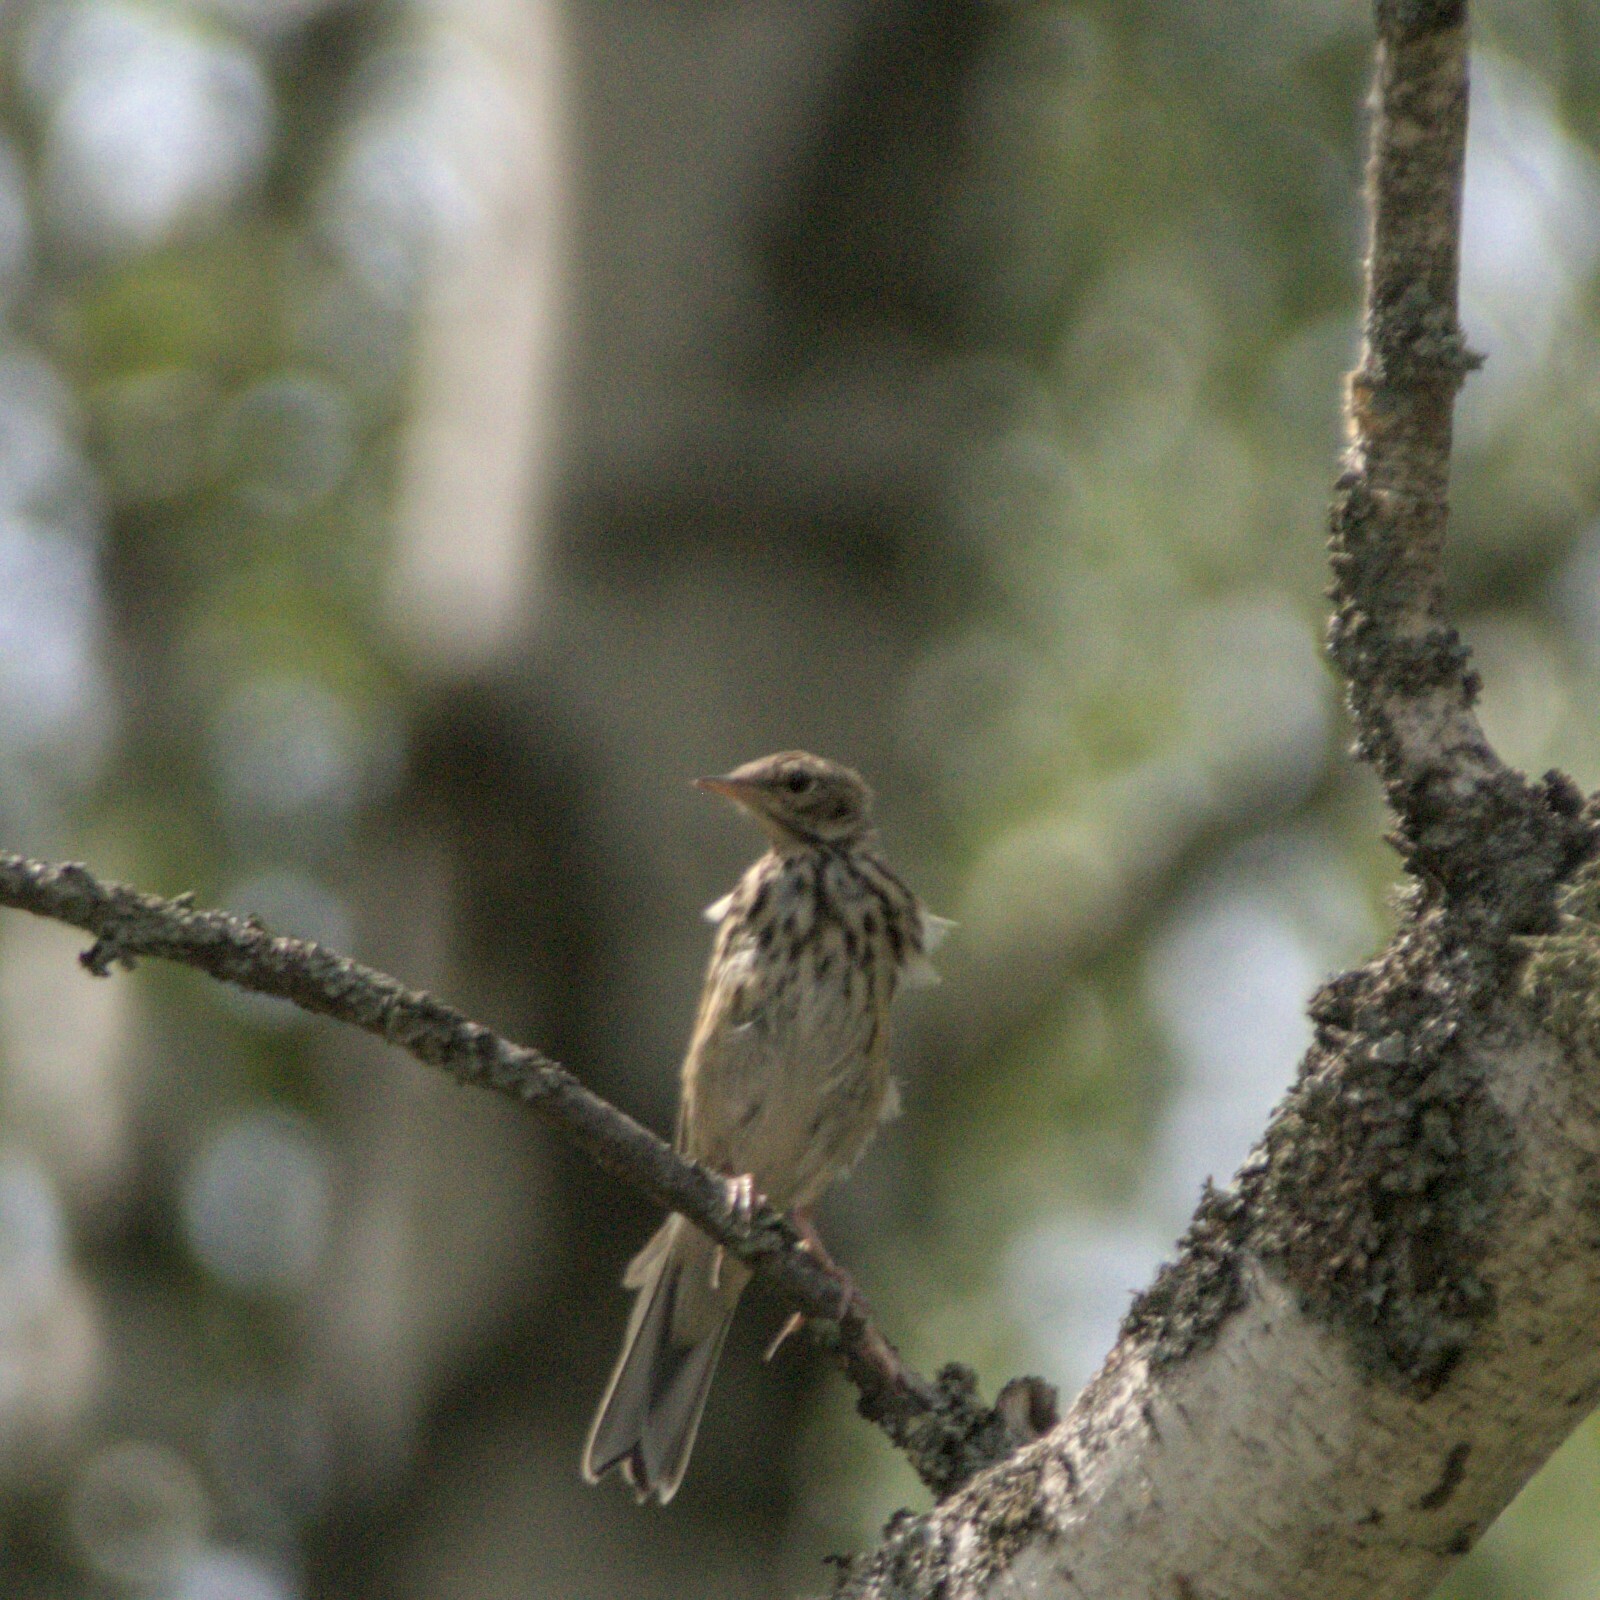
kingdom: Animalia
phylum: Chordata
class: Aves
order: Passeriformes
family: Motacillidae
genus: Anthus
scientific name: Anthus trivialis
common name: Tree pipit
